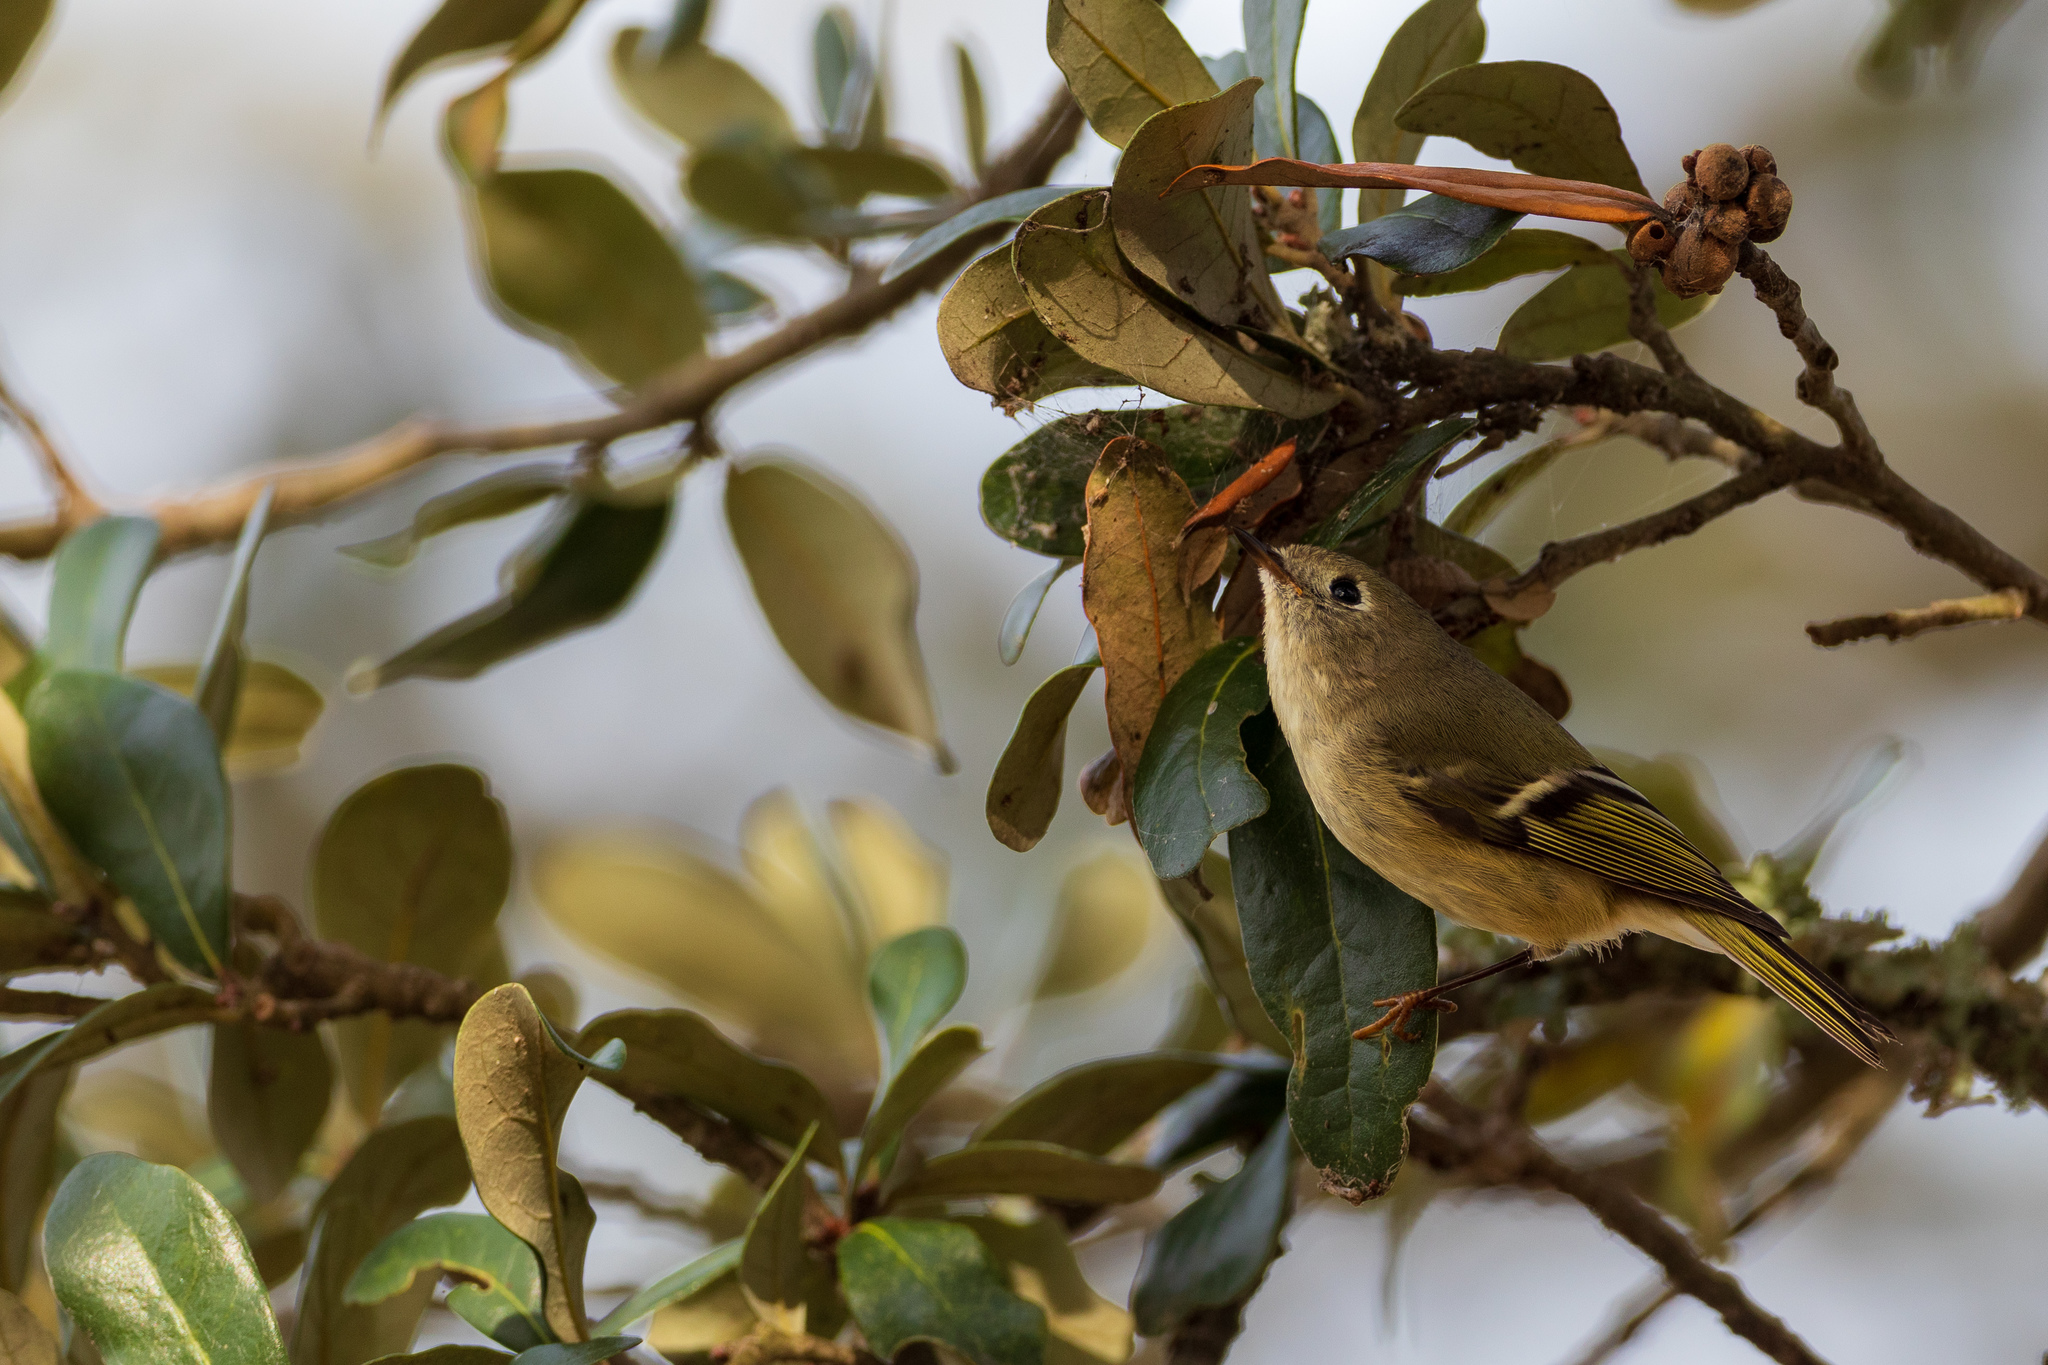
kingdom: Animalia
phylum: Chordata
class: Aves
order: Passeriformes
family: Regulidae
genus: Regulus
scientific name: Regulus calendula
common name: Ruby-crowned kinglet
